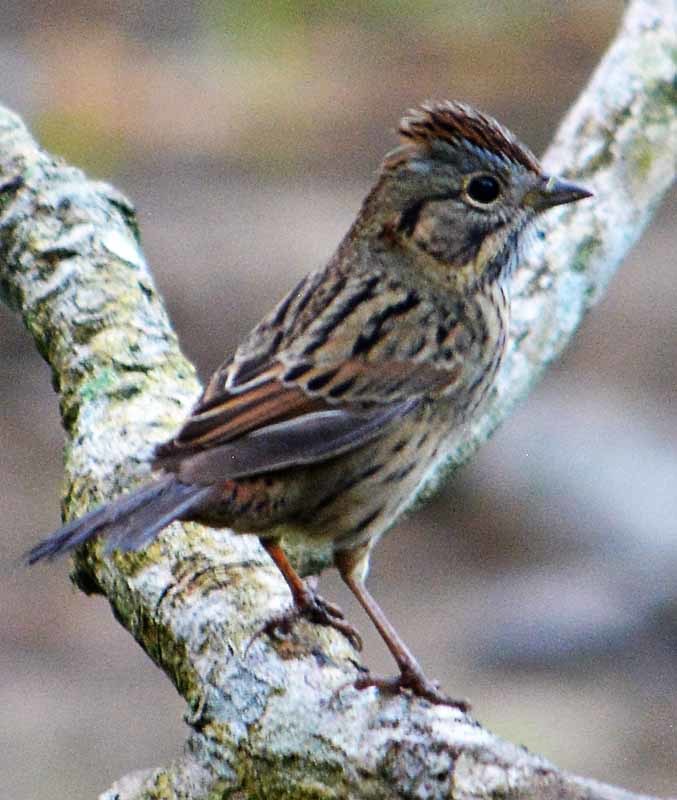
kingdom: Animalia
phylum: Chordata
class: Aves
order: Passeriformes
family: Passerellidae
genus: Melospiza
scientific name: Melospiza lincolnii
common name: Lincoln's sparrow
